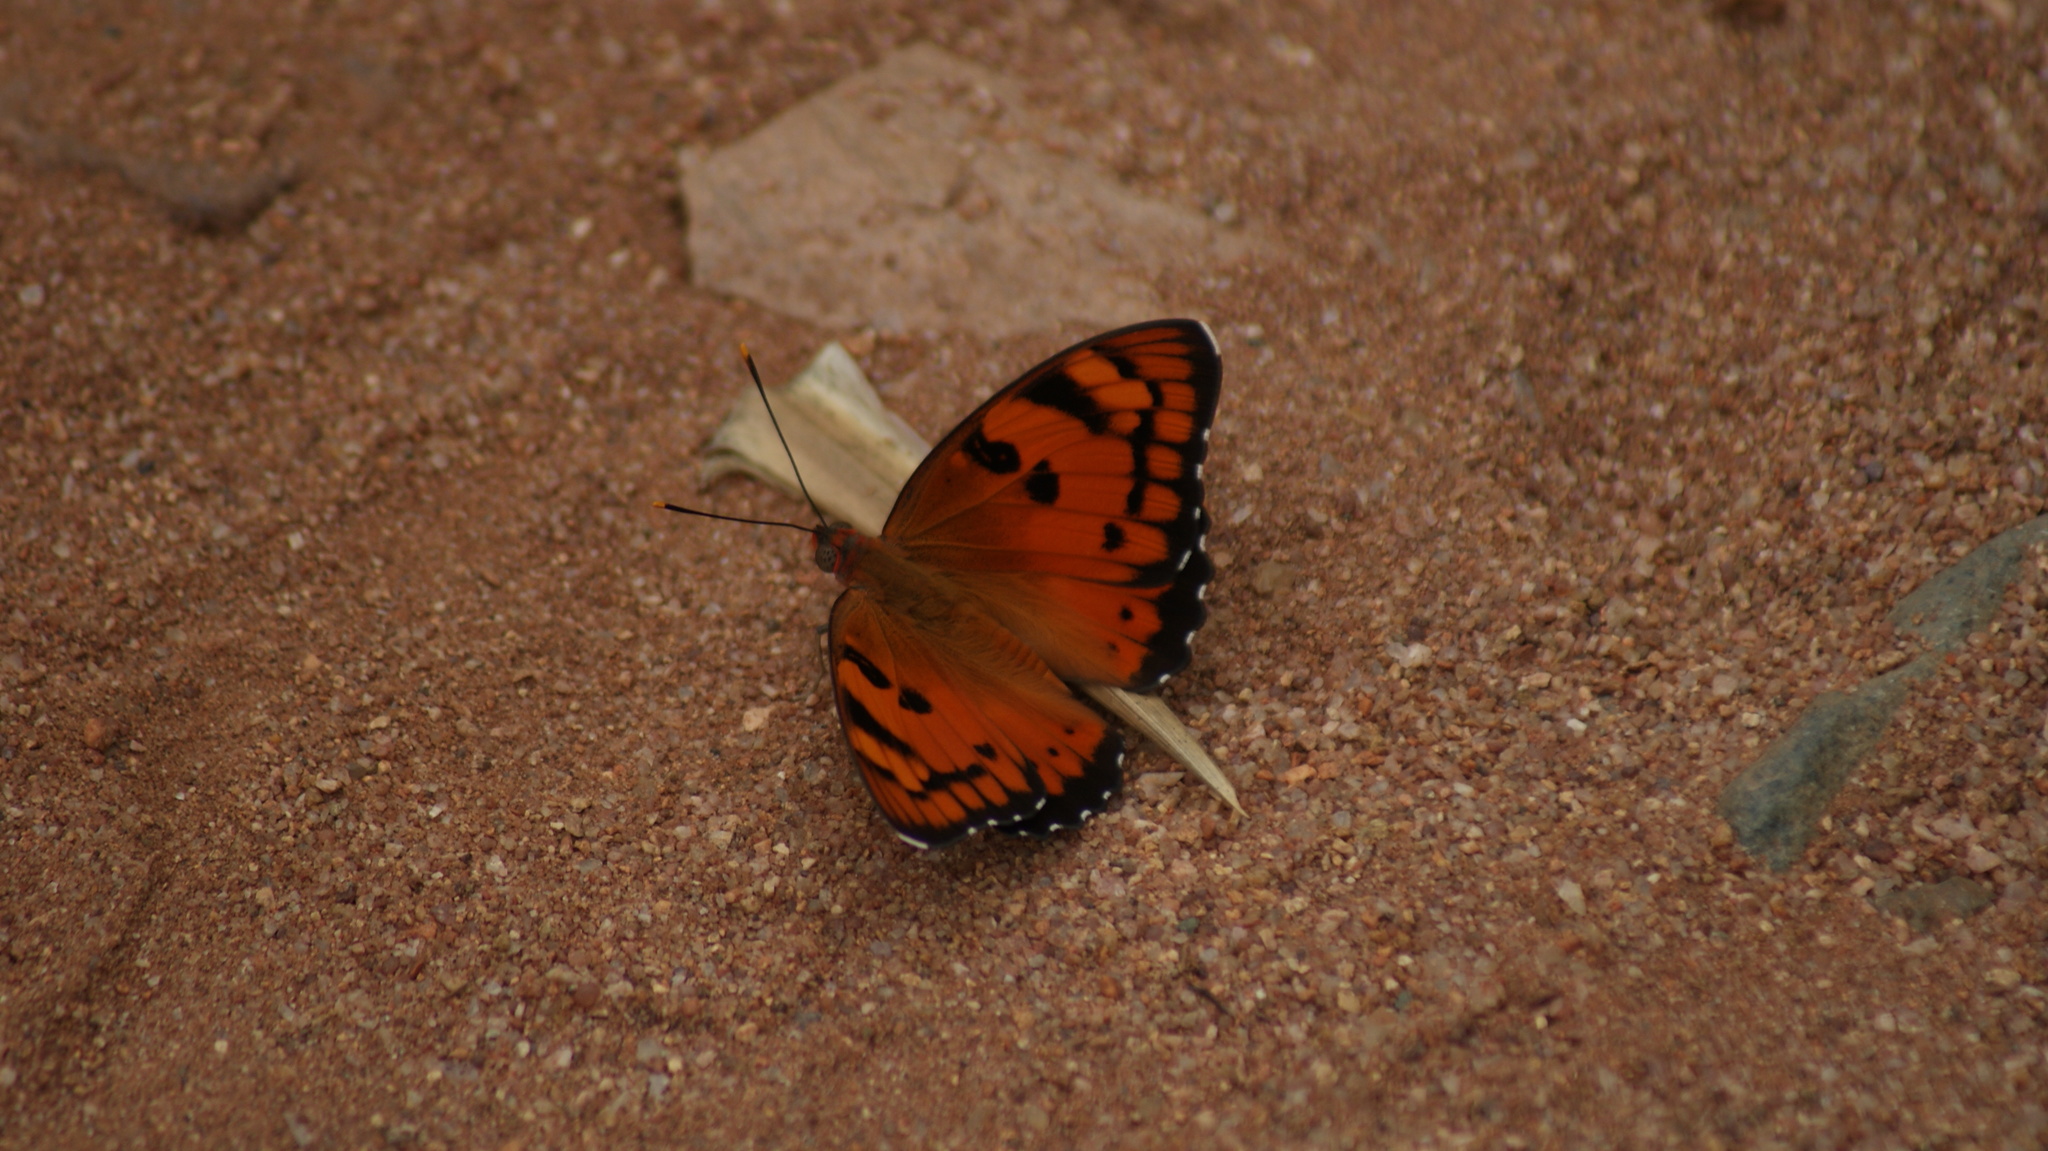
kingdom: Animalia
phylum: Arthropoda
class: Insecta
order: Lepidoptera
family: Nymphalidae
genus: Euthalia
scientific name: Euthalia nais
